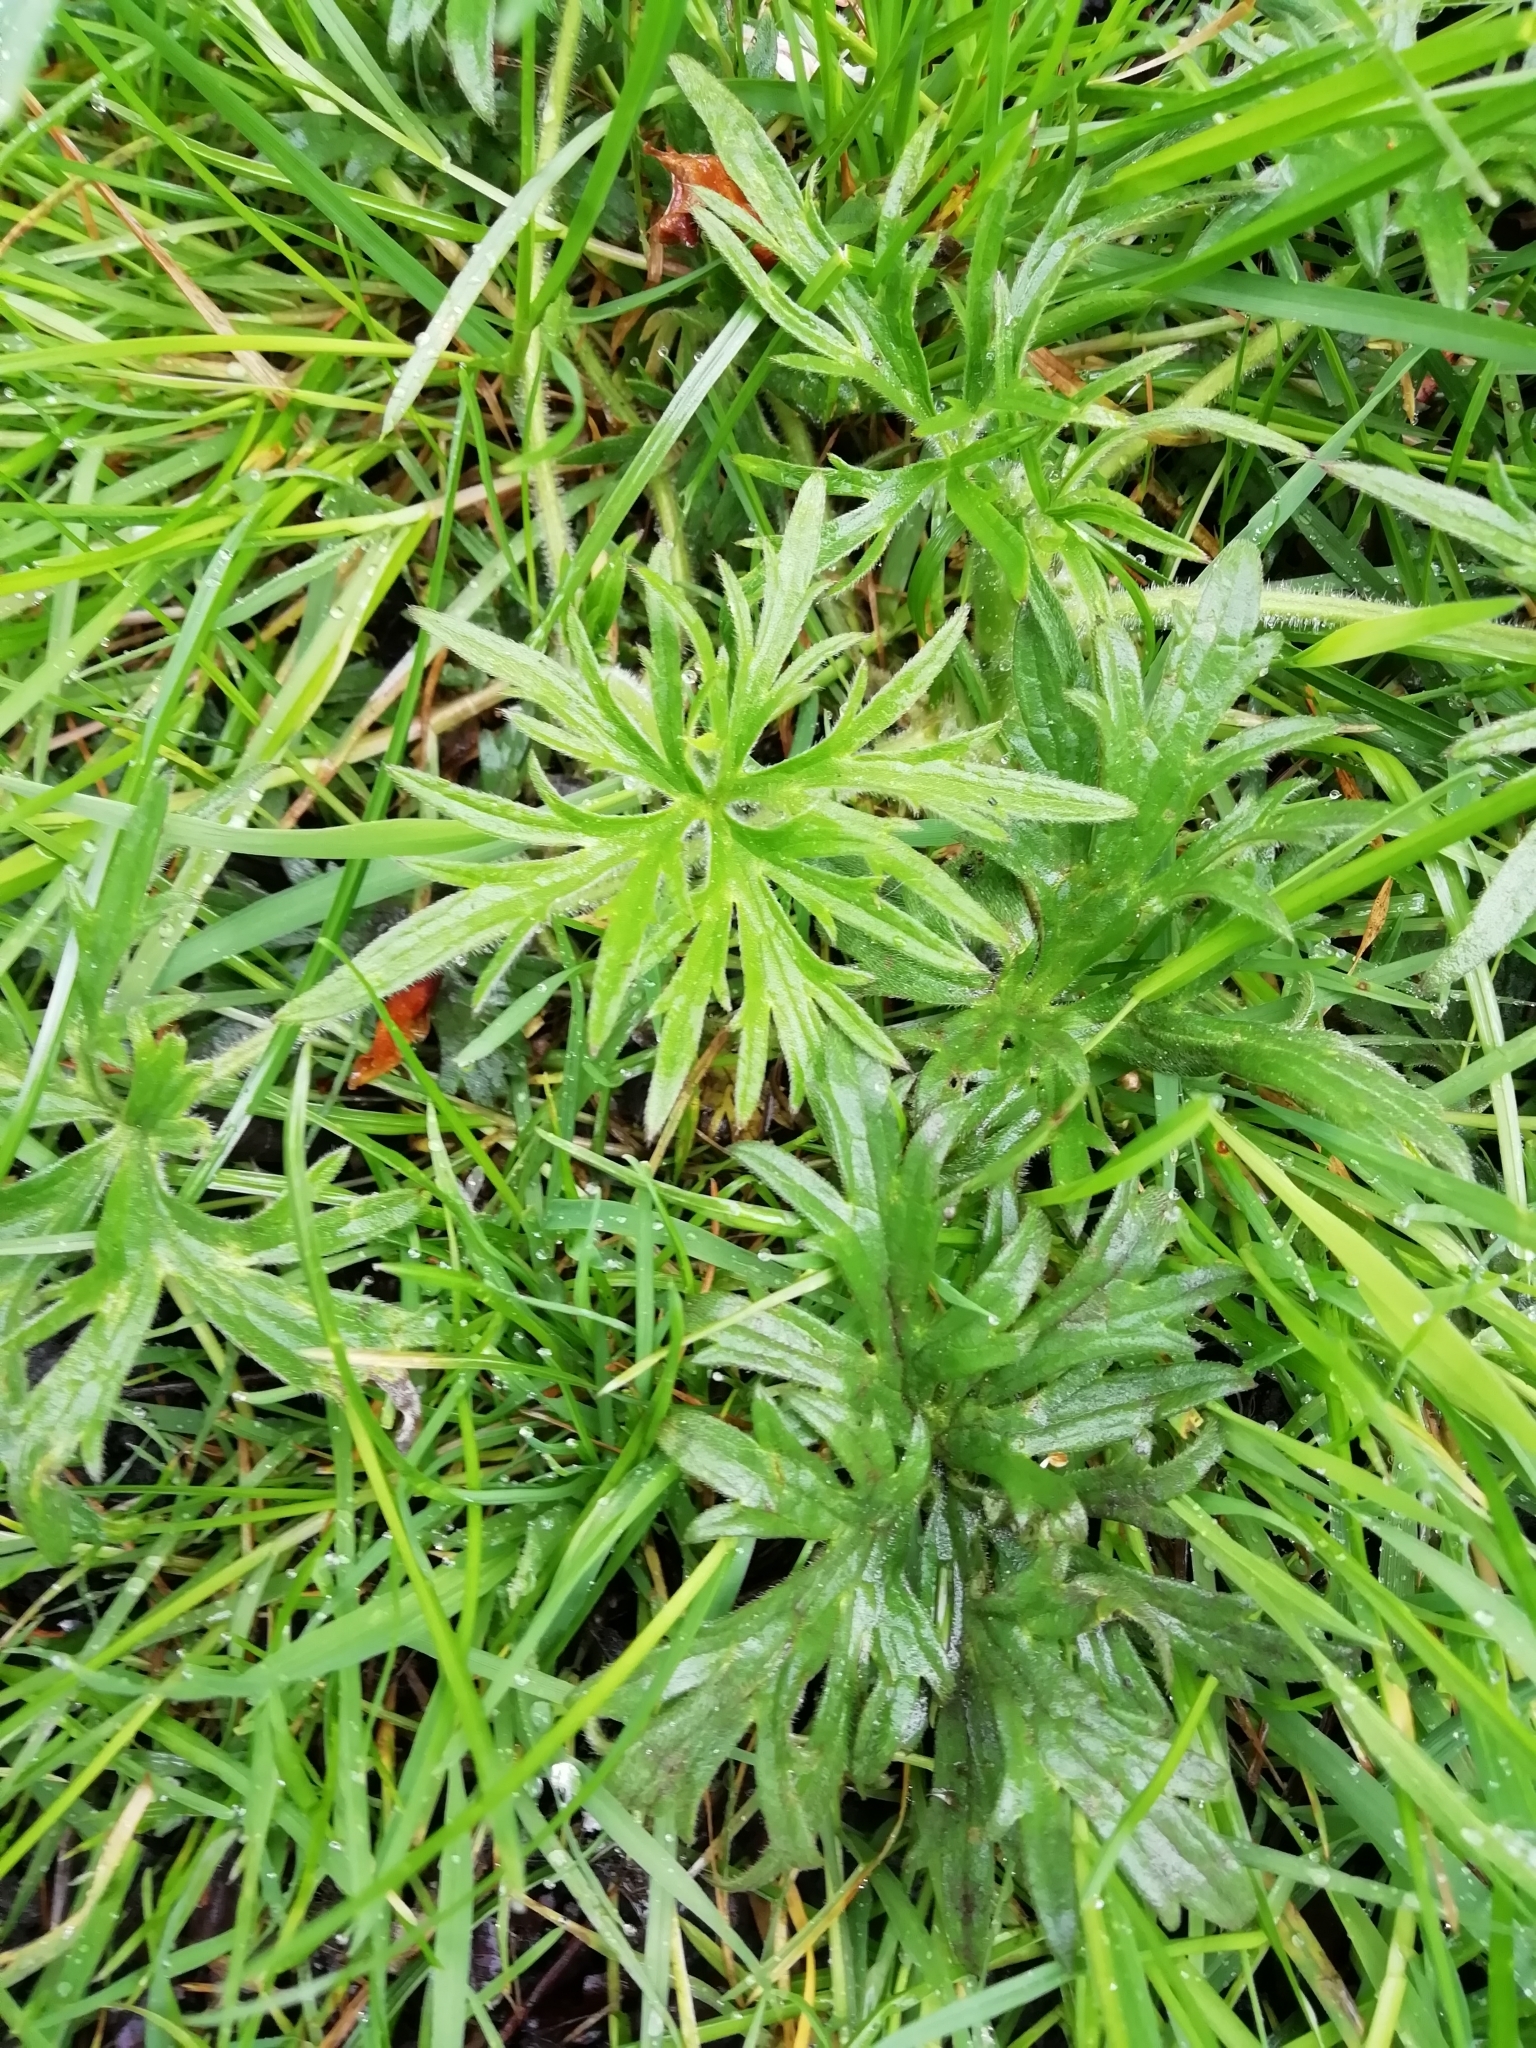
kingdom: Plantae
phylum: Tracheophyta
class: Magnoliopsida
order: Ranunculales
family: Ranunculaceae
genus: Ranunculus
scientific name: Ranunculus acris
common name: Meadow buttercup
